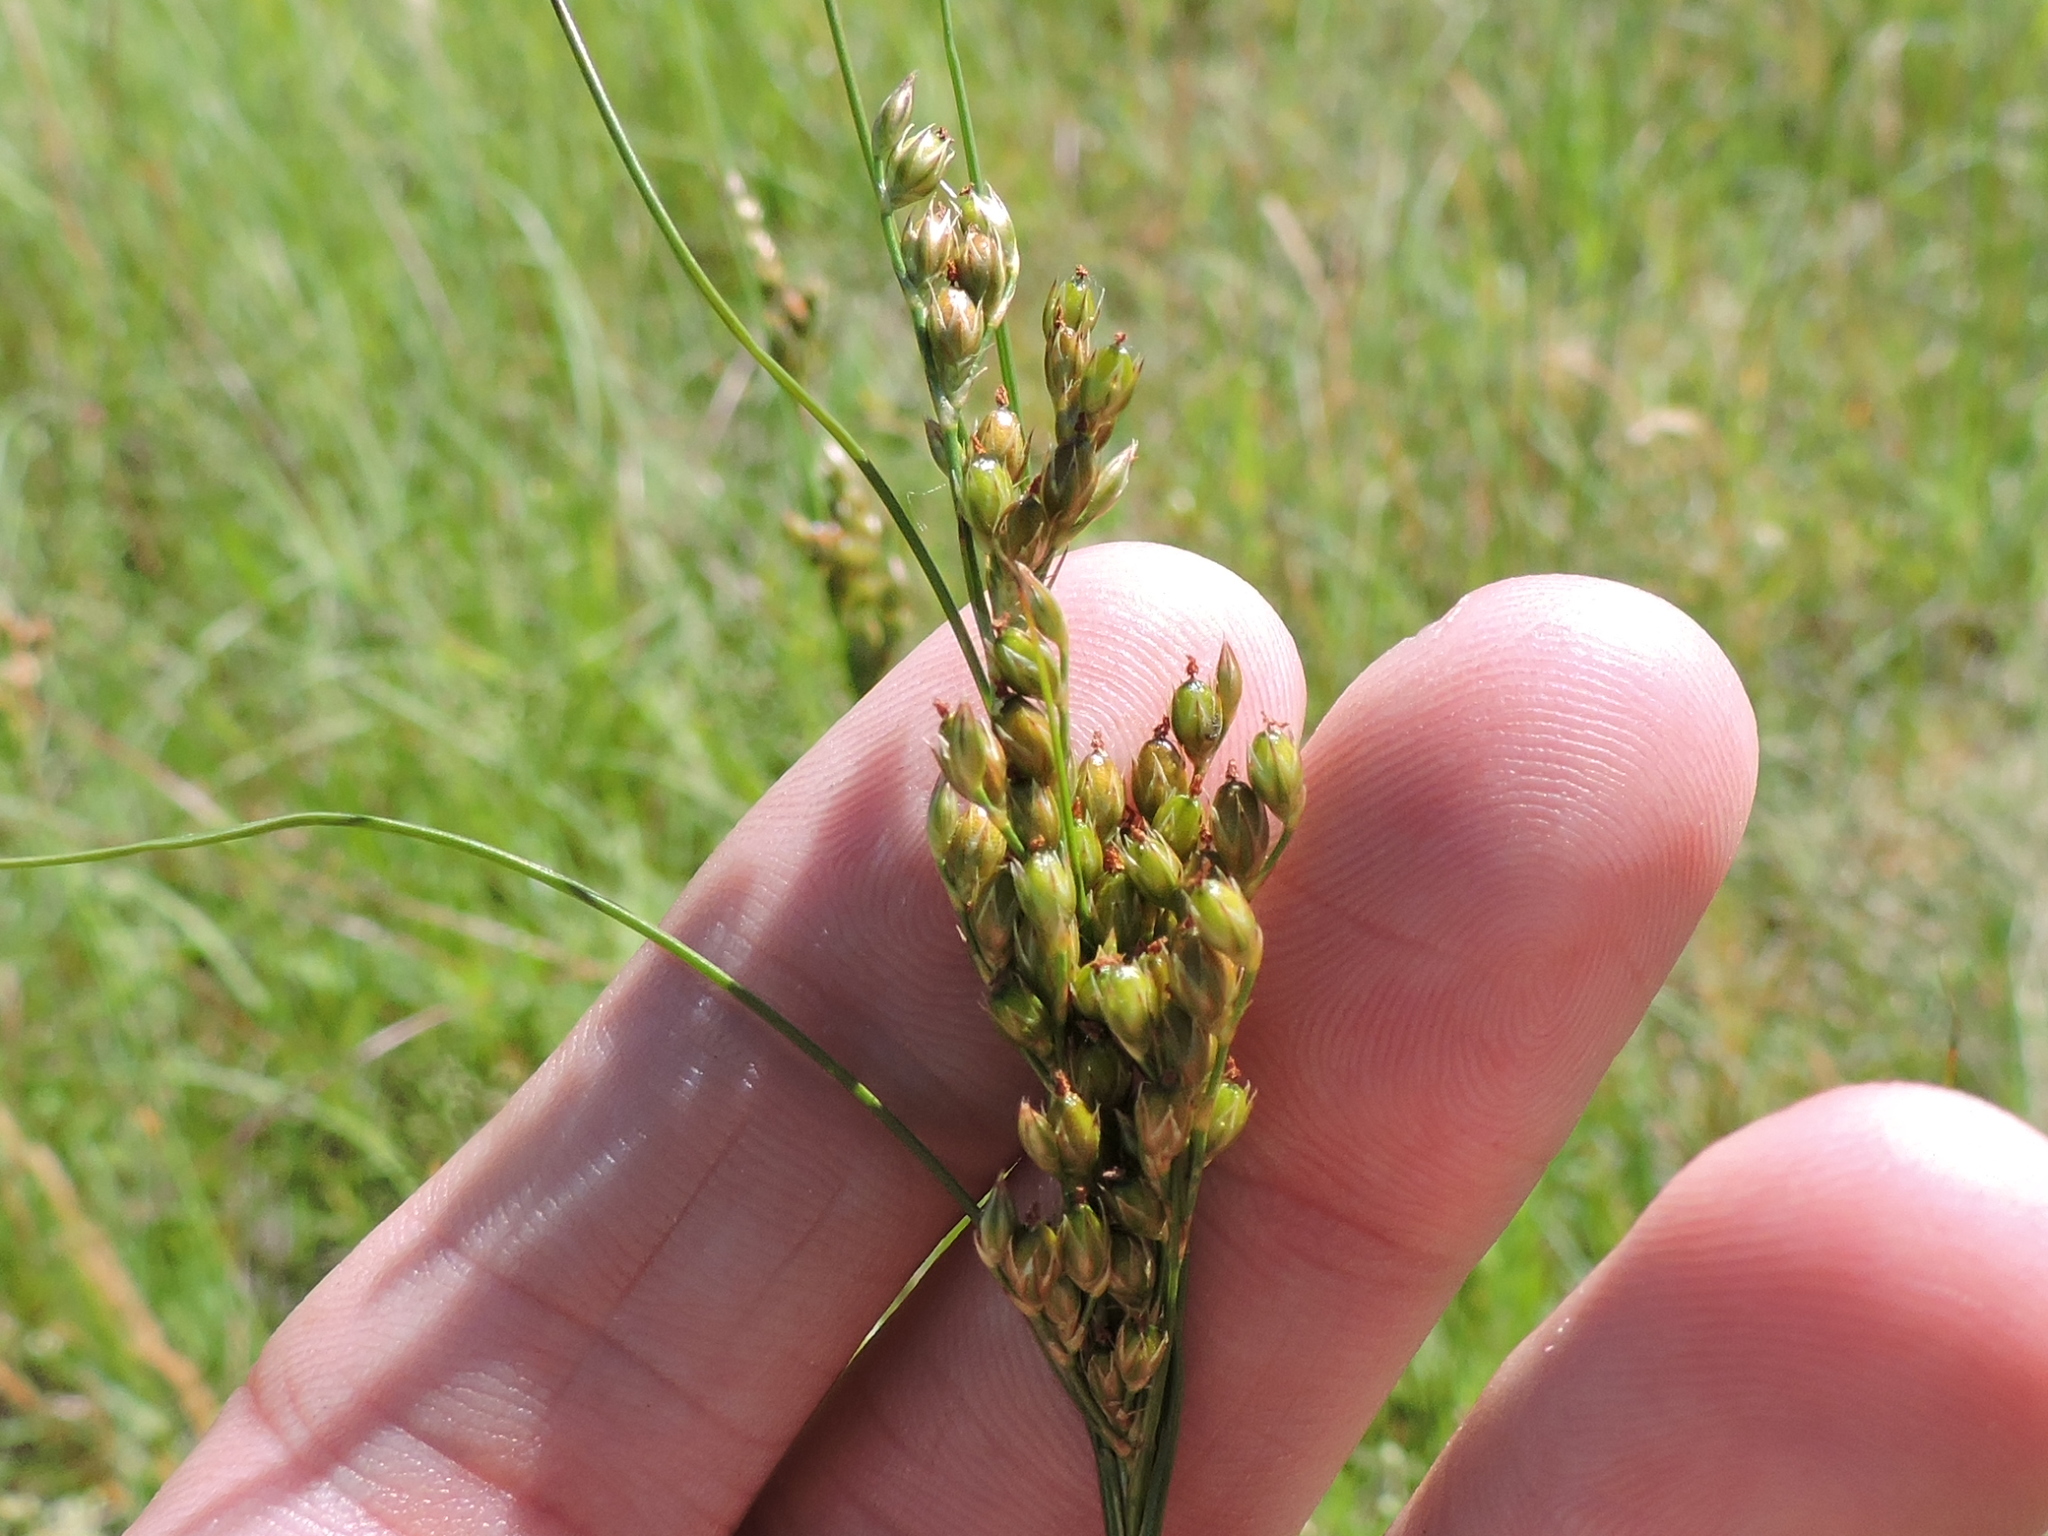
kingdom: Plantae
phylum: Tracheophyta
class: Liliopsida
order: Poales
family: Juncaceae
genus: Juncus
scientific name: Juncus interior
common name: Interior rush
